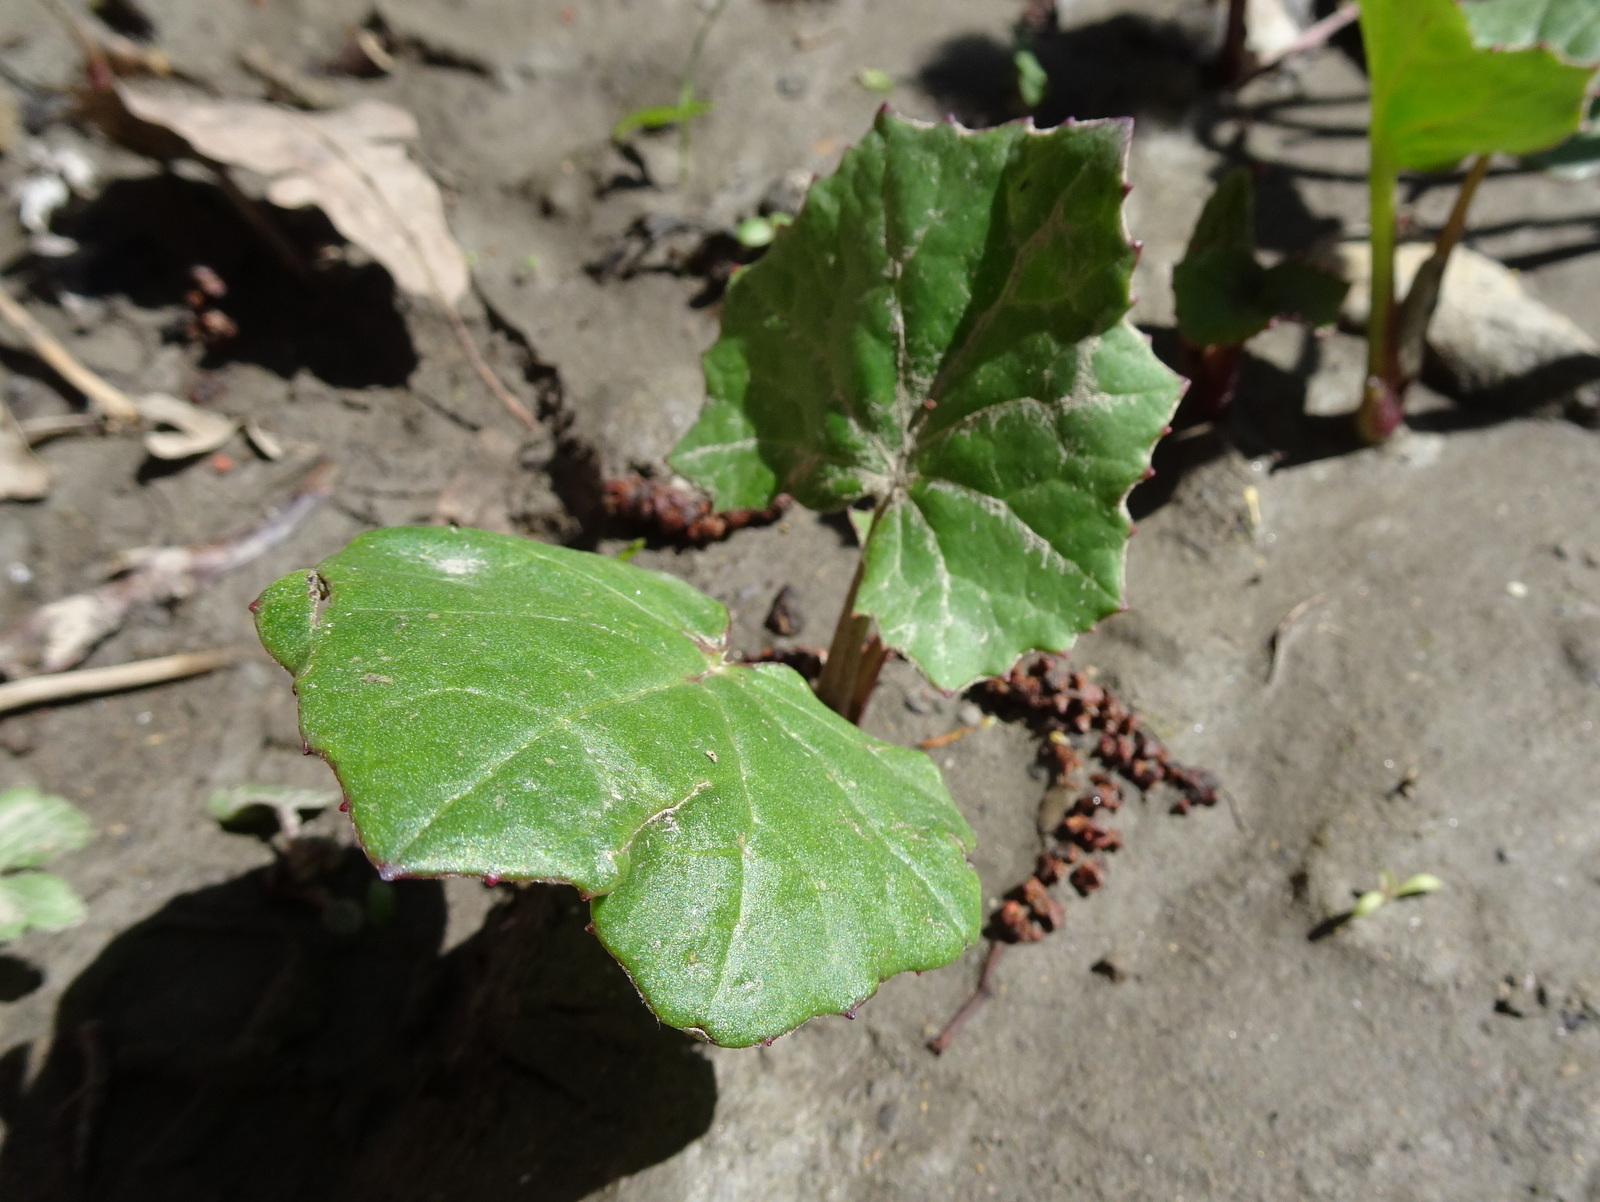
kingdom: Plantae
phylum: Tracheophyta
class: Magnoliopsida
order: Asterales
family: Asteraceae
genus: Tussilago
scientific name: Tussilago farfara
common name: Coltsfoot
